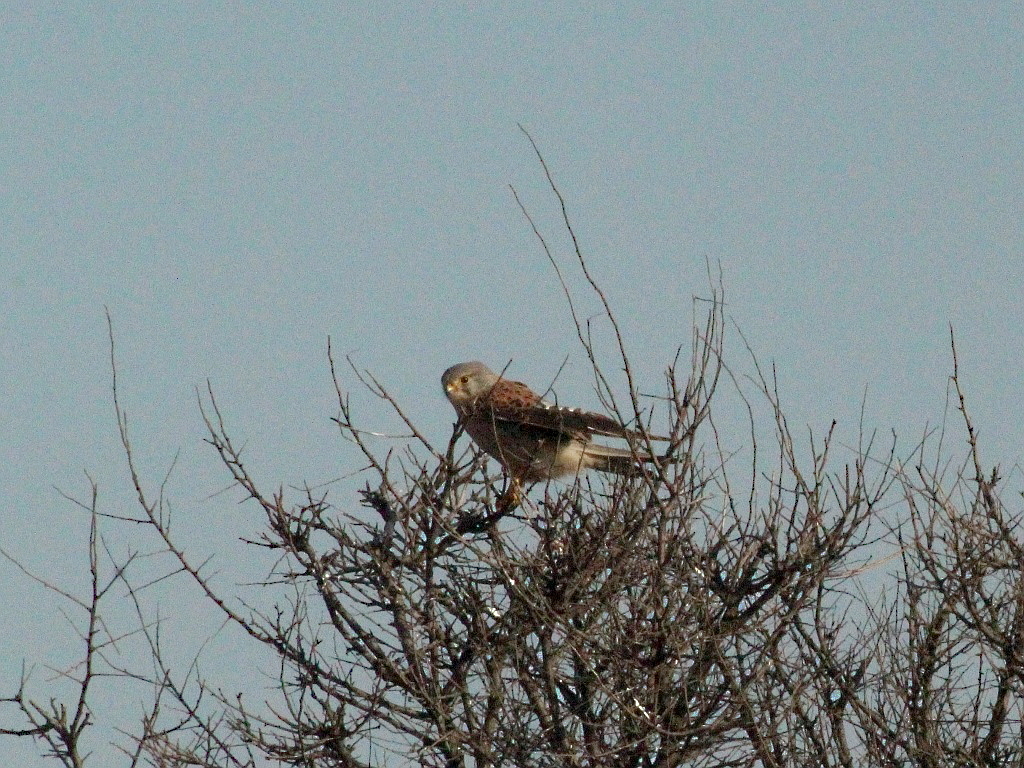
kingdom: Animalia
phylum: Chordata
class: Aves
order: Falconiformes
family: Falconidae
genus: Falco
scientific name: Falco tinnunculus
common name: Common kestrel
